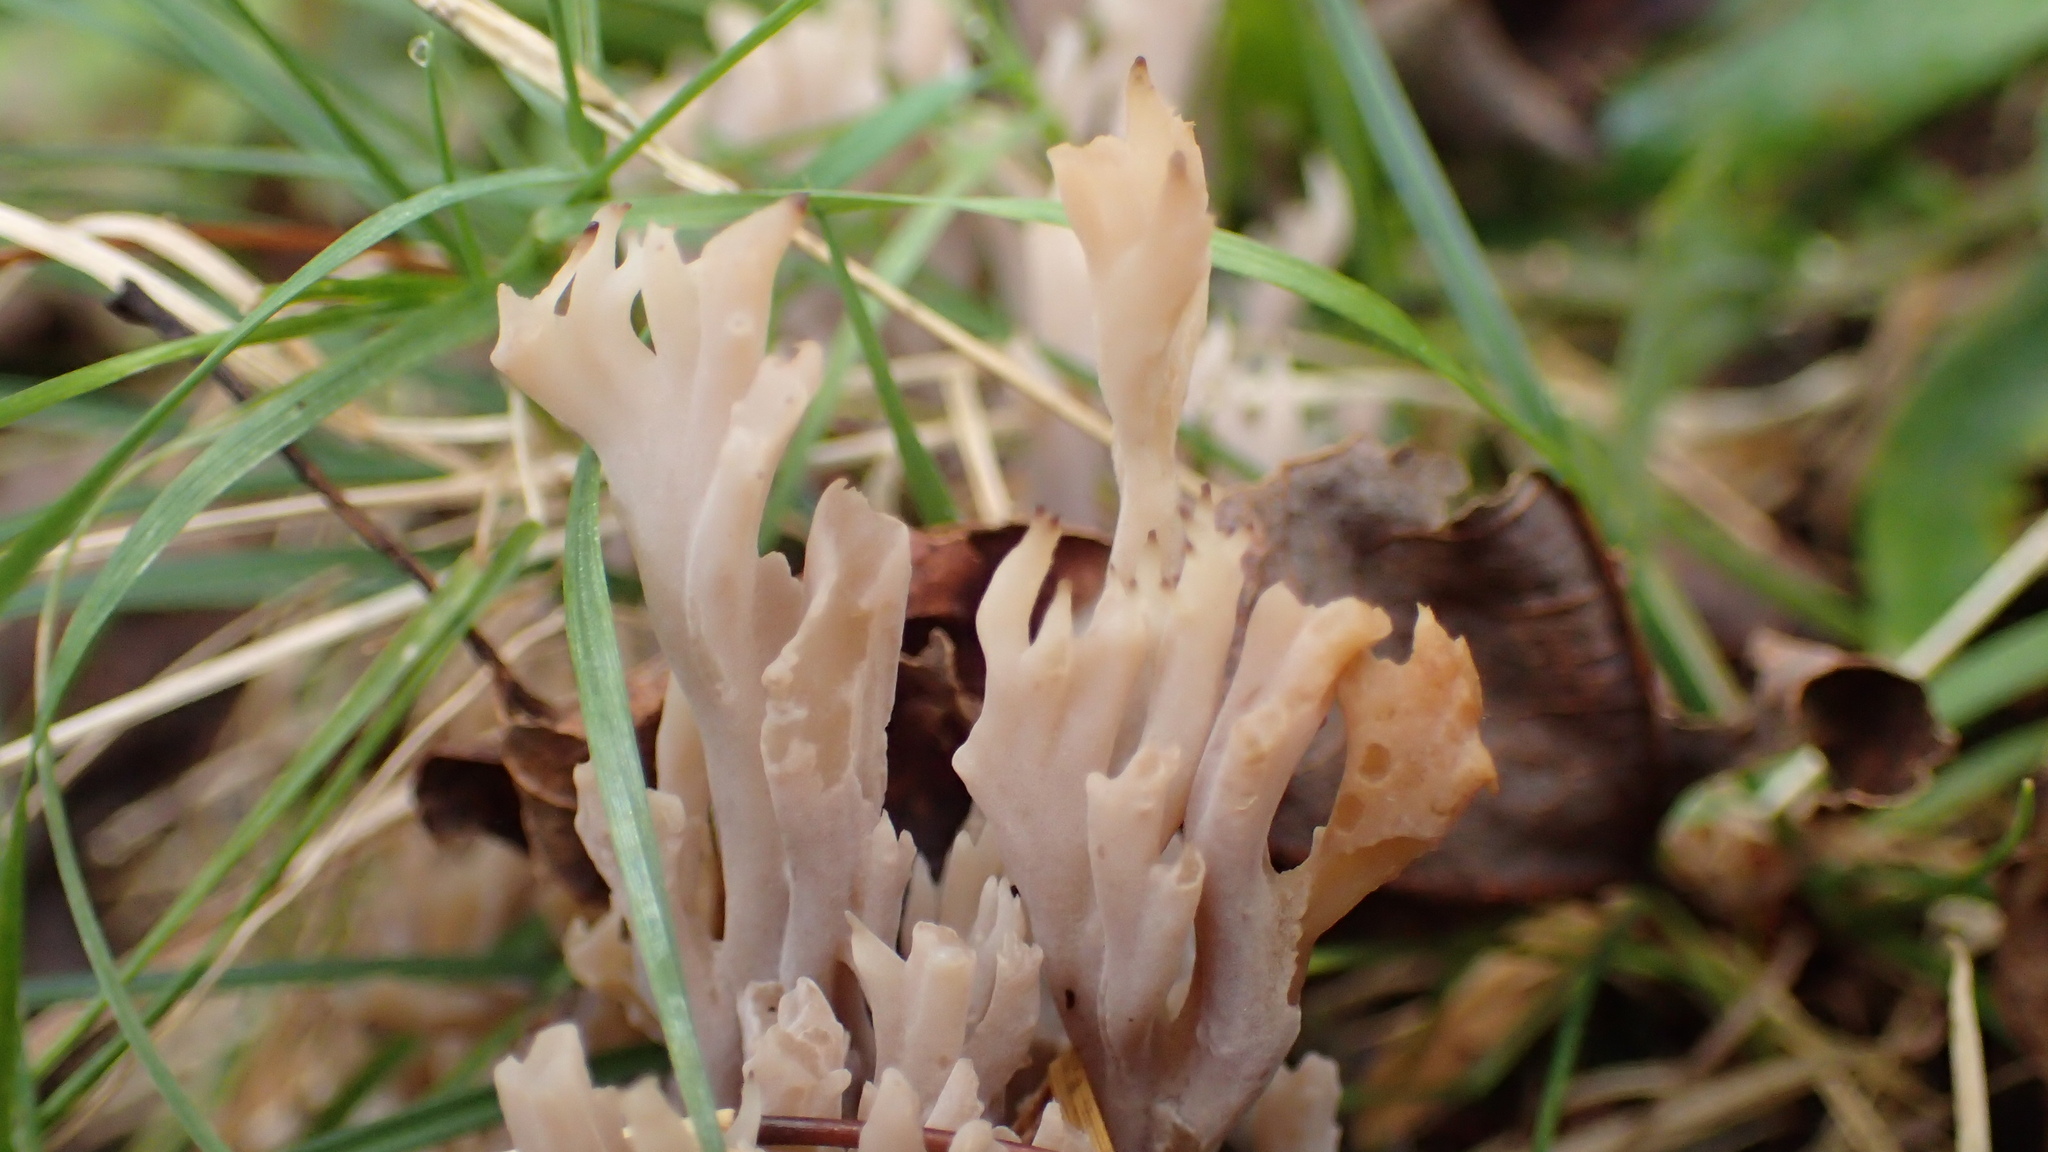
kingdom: Fungi
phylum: Basidiomycota
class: Agaricomycetes
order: Cantharellales
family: Hydnaceae
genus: Clavulina
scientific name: Clavulina cinerea
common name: Grey coral
